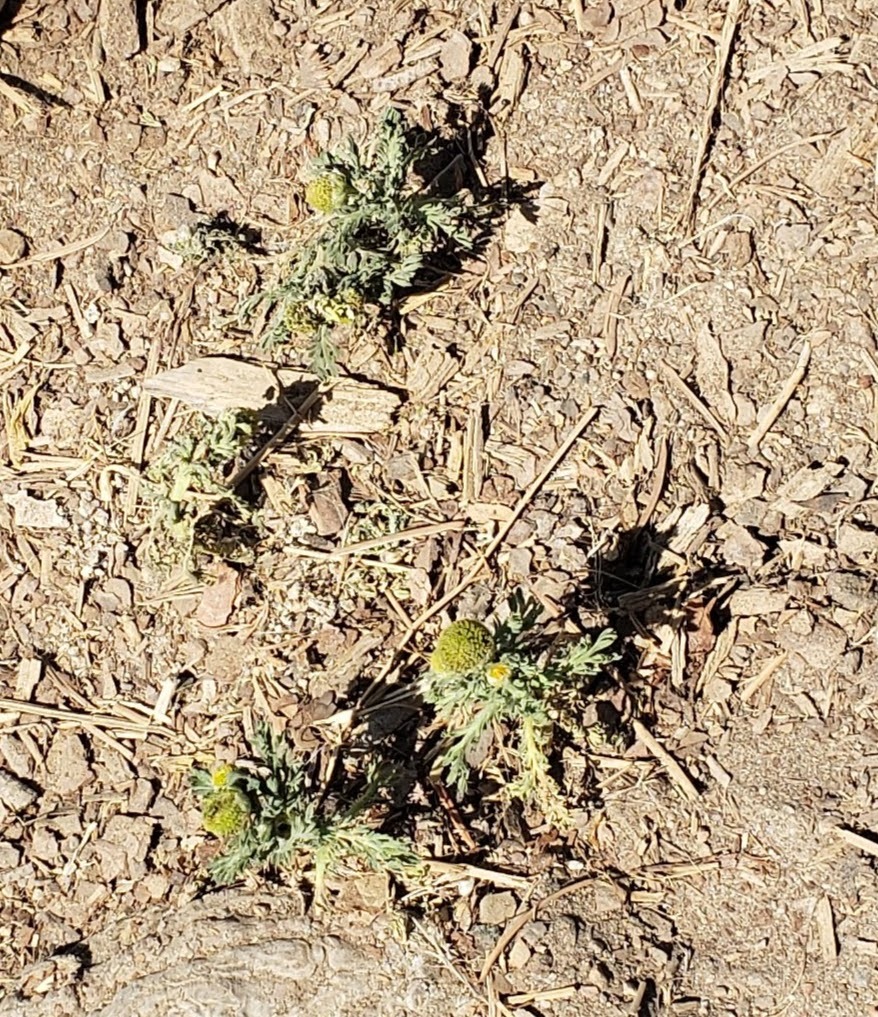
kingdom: Plantae
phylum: Tracheophyta
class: Magnoliopsida
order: Asterales
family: Asteraceae
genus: Matricaria
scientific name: Matricaria discoidea
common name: Disc mayweed
